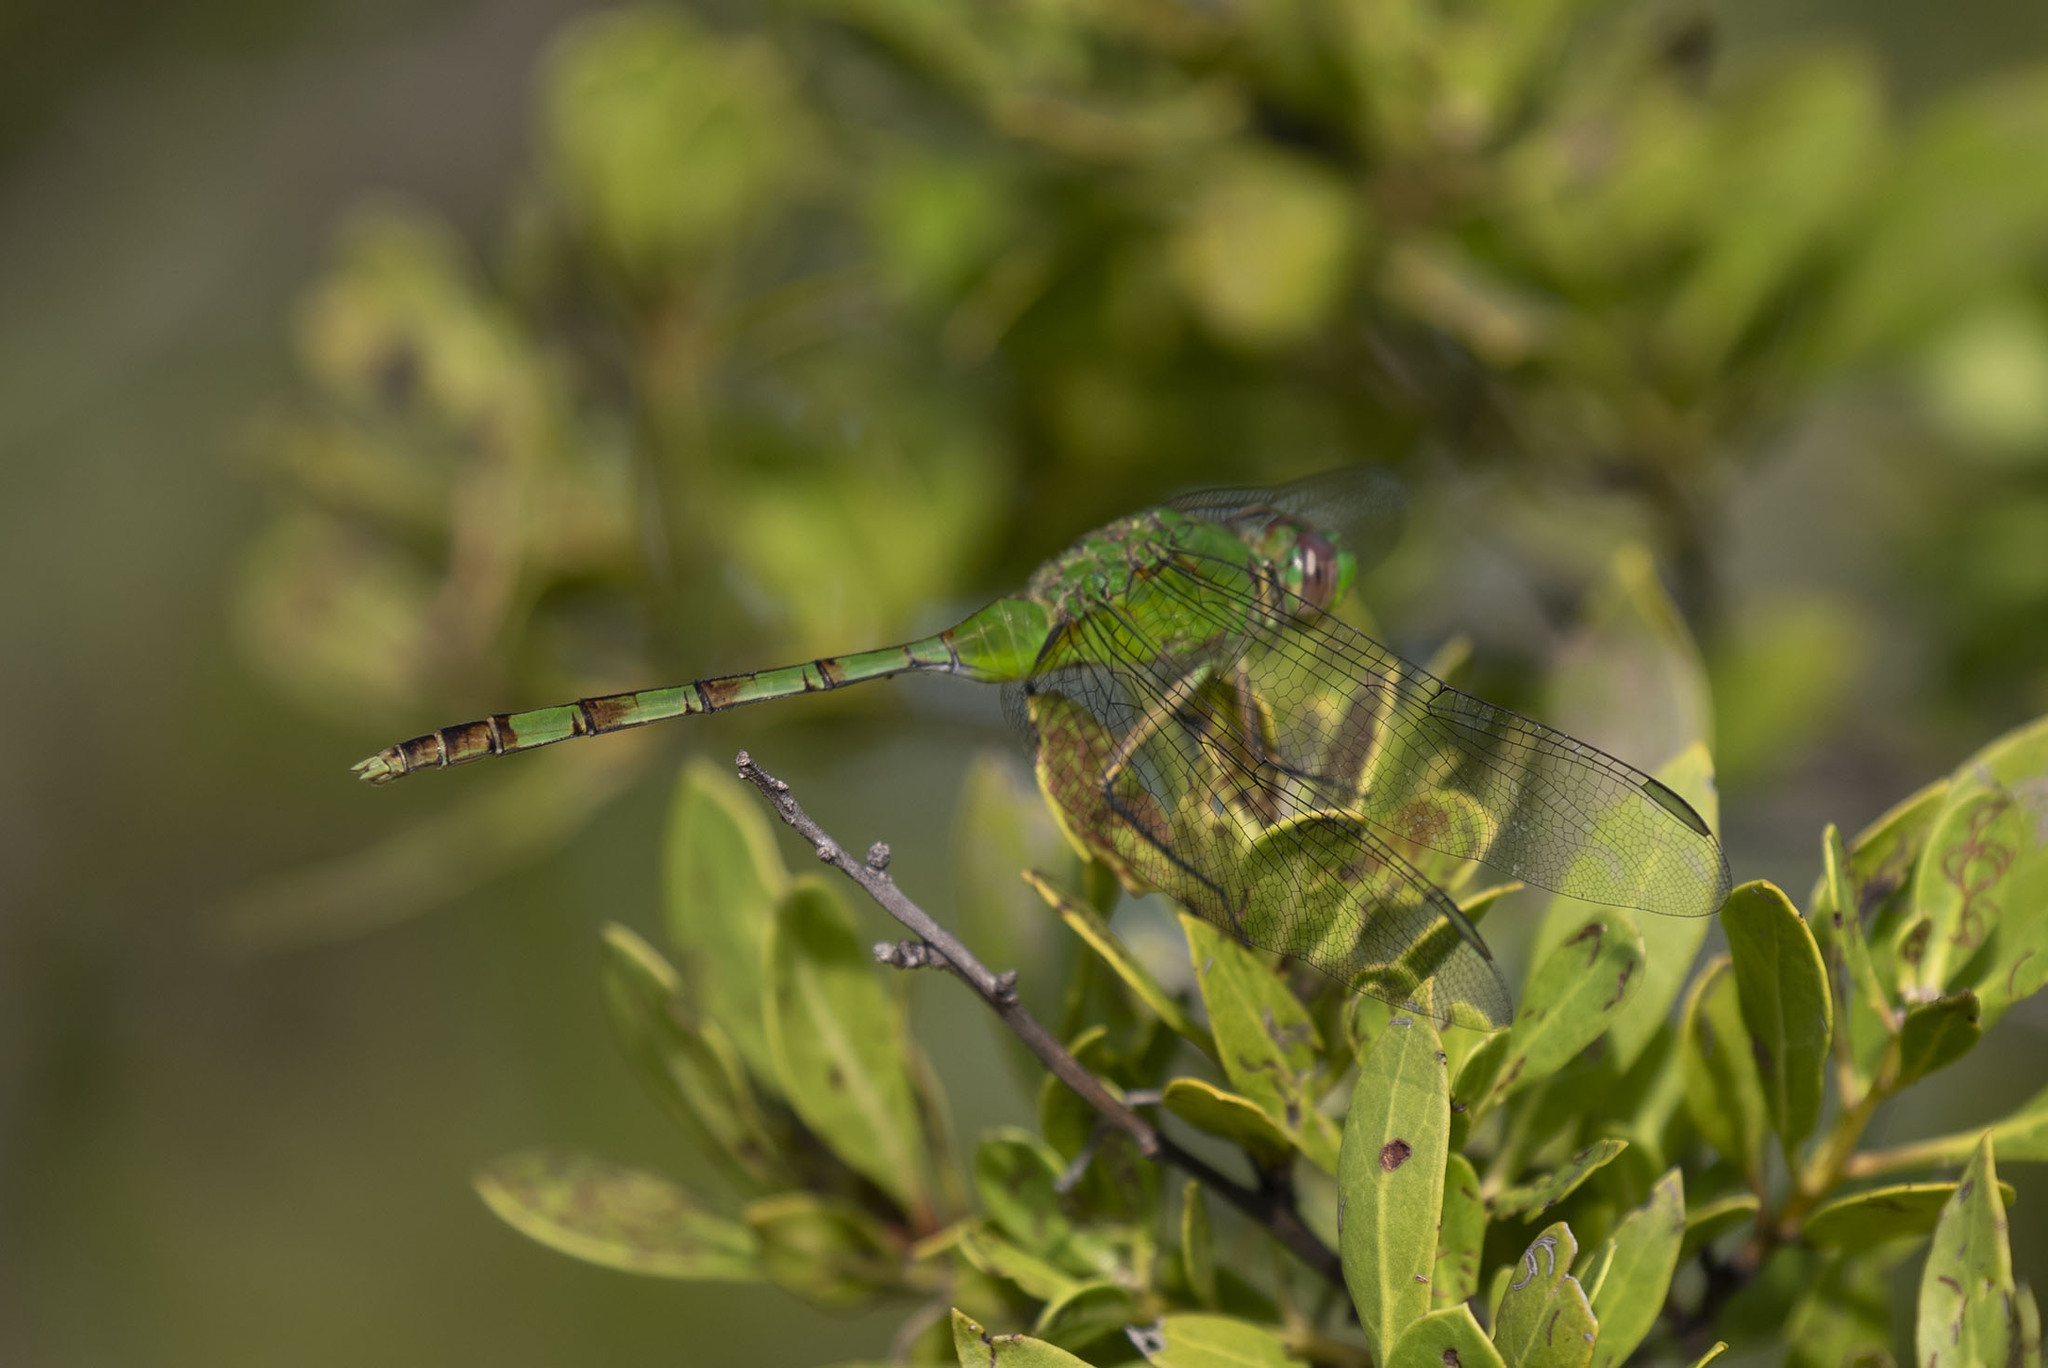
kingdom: Animalia
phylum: Arthropoda
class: Insecta
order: Odonata
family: Libellulidae
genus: Erythemis
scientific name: Erythemis vesiculosa
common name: Great pondhawk
